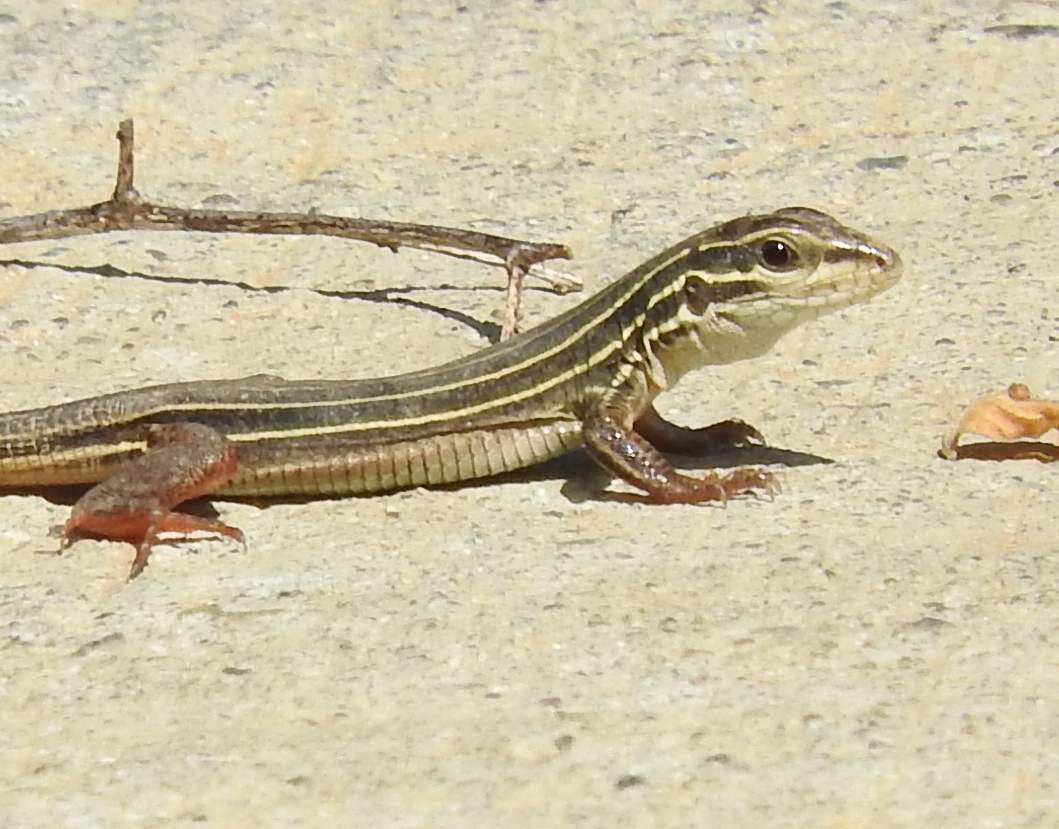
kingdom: Animalia
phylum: Chordata
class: Squamata
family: Teiidae
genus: Aspidoscelis
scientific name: Aspidoscelis costatus
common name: Western mexico whiptail
